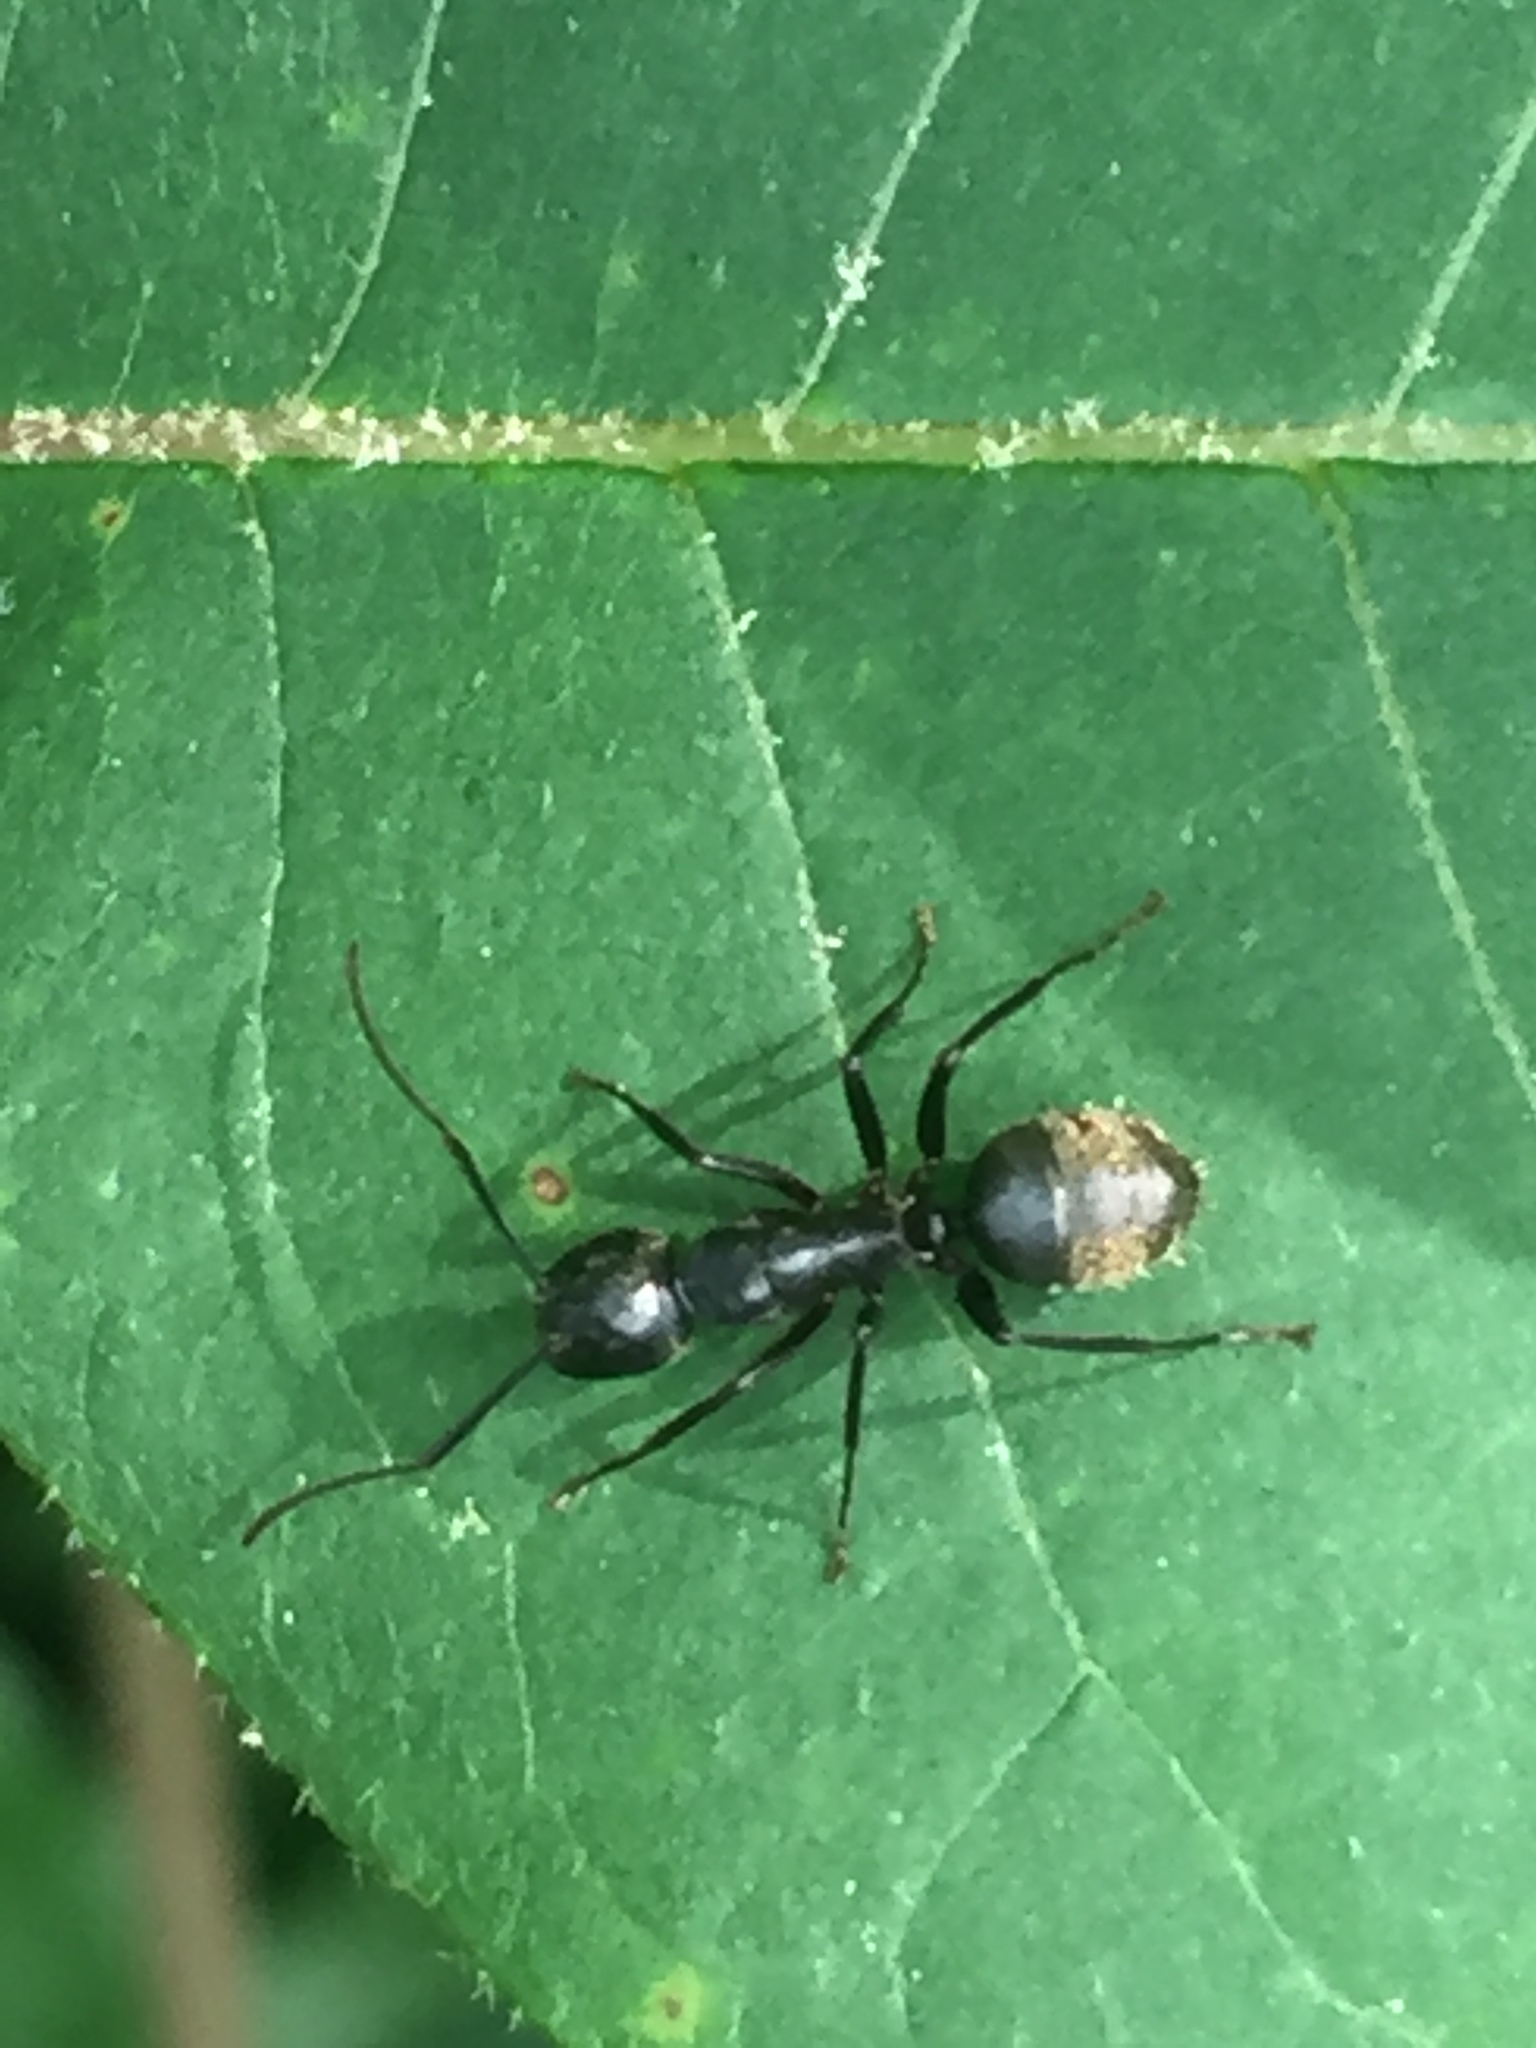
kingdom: Animalia
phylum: Arthropoda
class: Insecta
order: Hymenoptera
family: Formicidae
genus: Camponotus
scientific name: Camponotus pennsylvanicus
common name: Black carpenter ant
